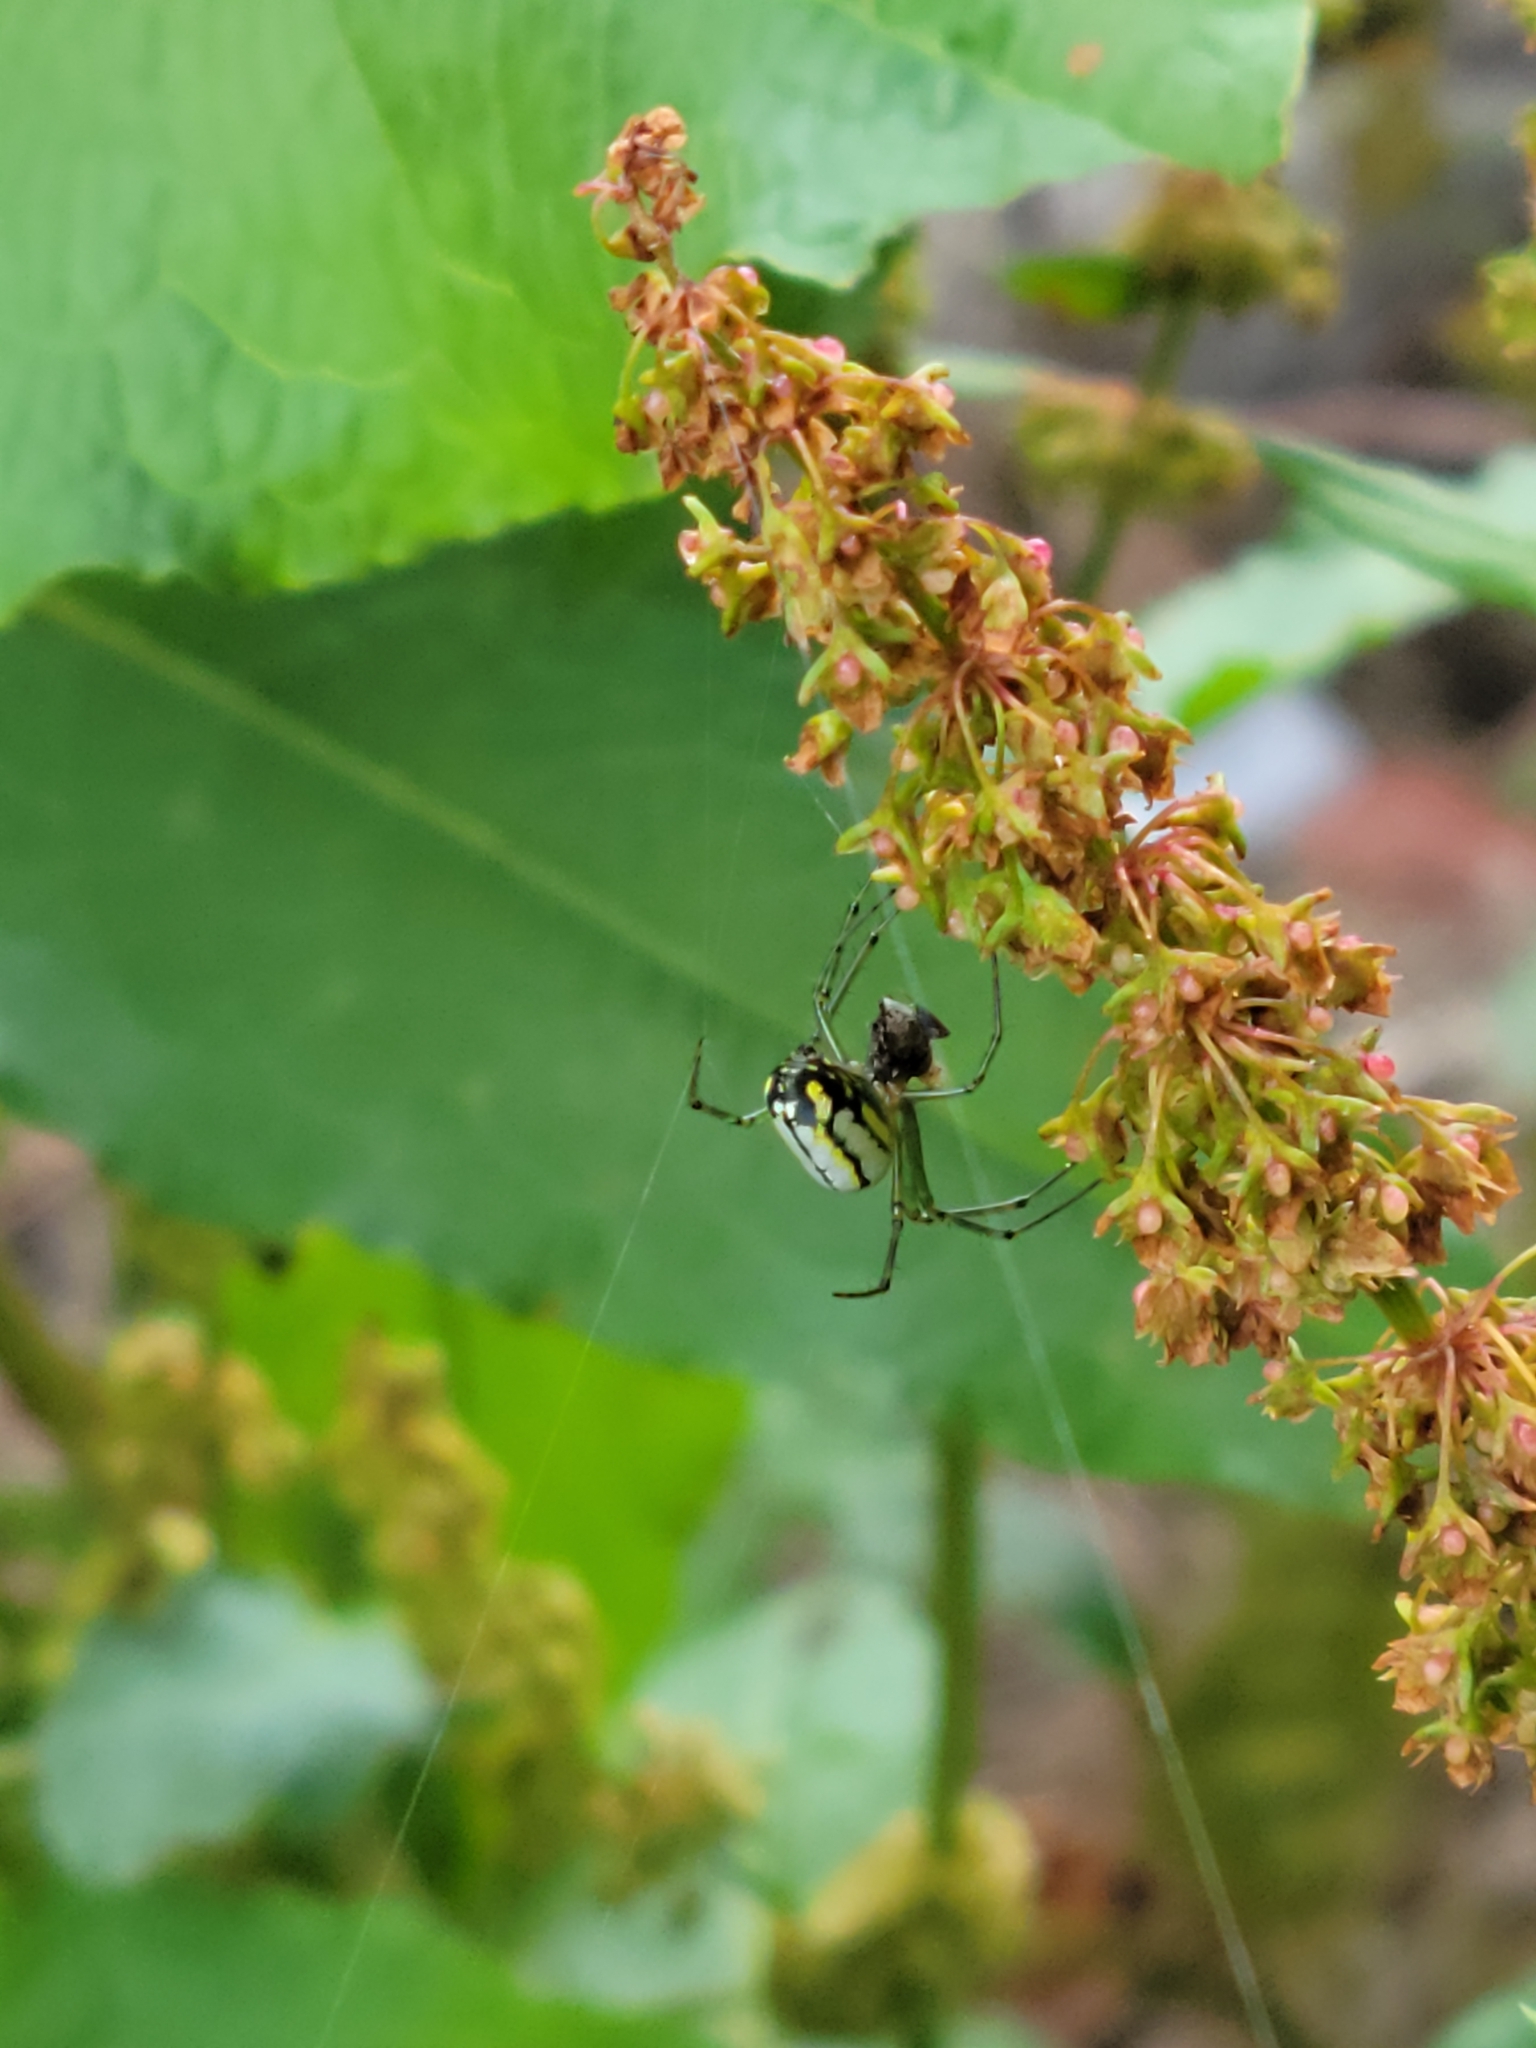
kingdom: Animalia
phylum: Arthropoda
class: Arachnida
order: Araneae
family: Tetragnathidae
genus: Leucauge
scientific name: Leucauge venusta
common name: Longjawed orb weavers
